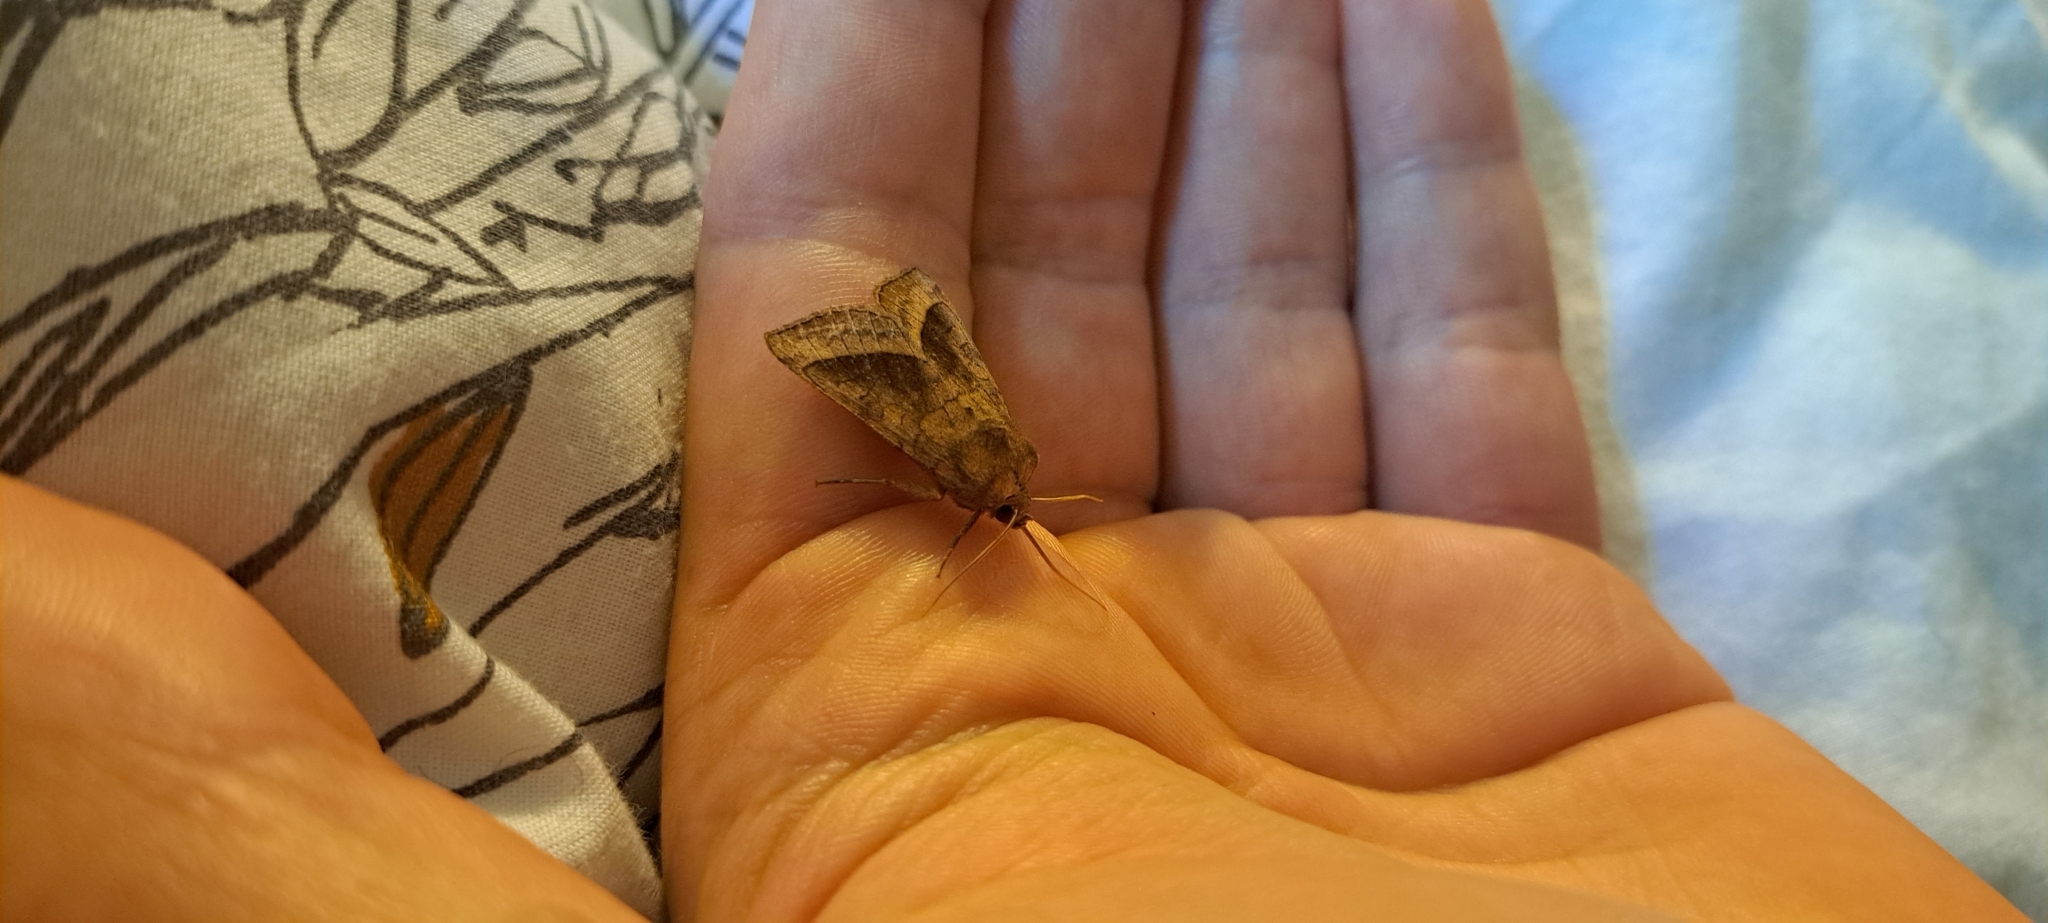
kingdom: Animalia
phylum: Arthropoda
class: Insecta
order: Lepidoptera
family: Noctuidae
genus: Hydraecia
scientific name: Hydraecia micacea
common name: Rosy rustic
